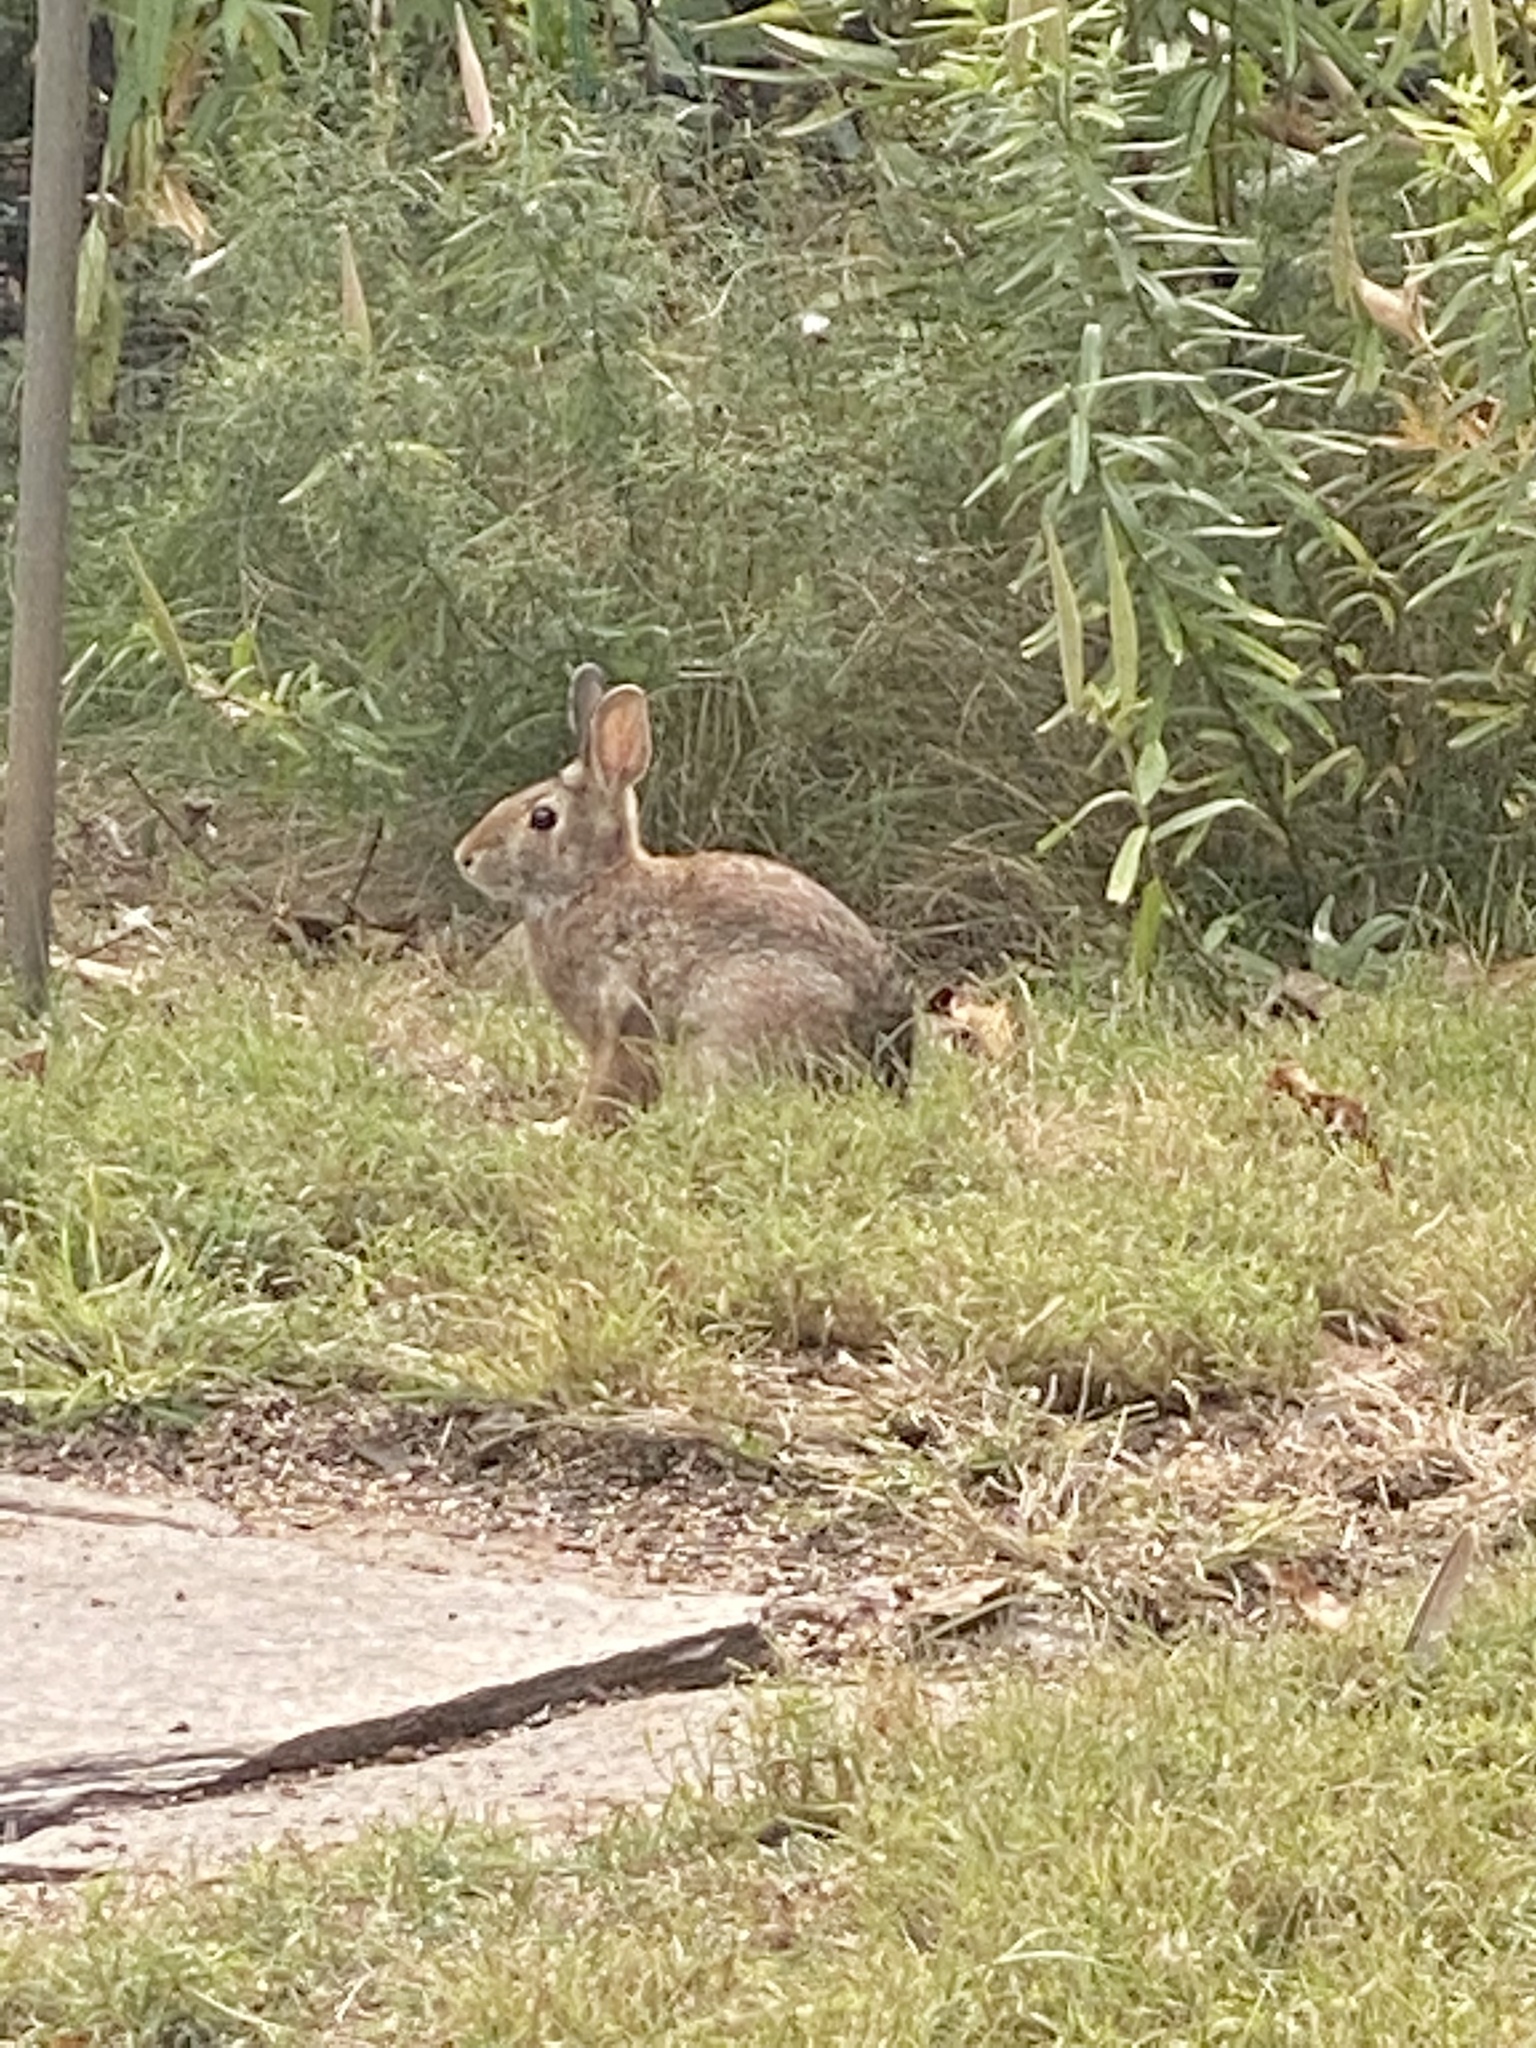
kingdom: Animalia
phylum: Chordata
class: Mammalia
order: Lagomorpha
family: Leporidae
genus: Sylvilagus
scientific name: Sylvilagus floridanus
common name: Eastern cottontail
